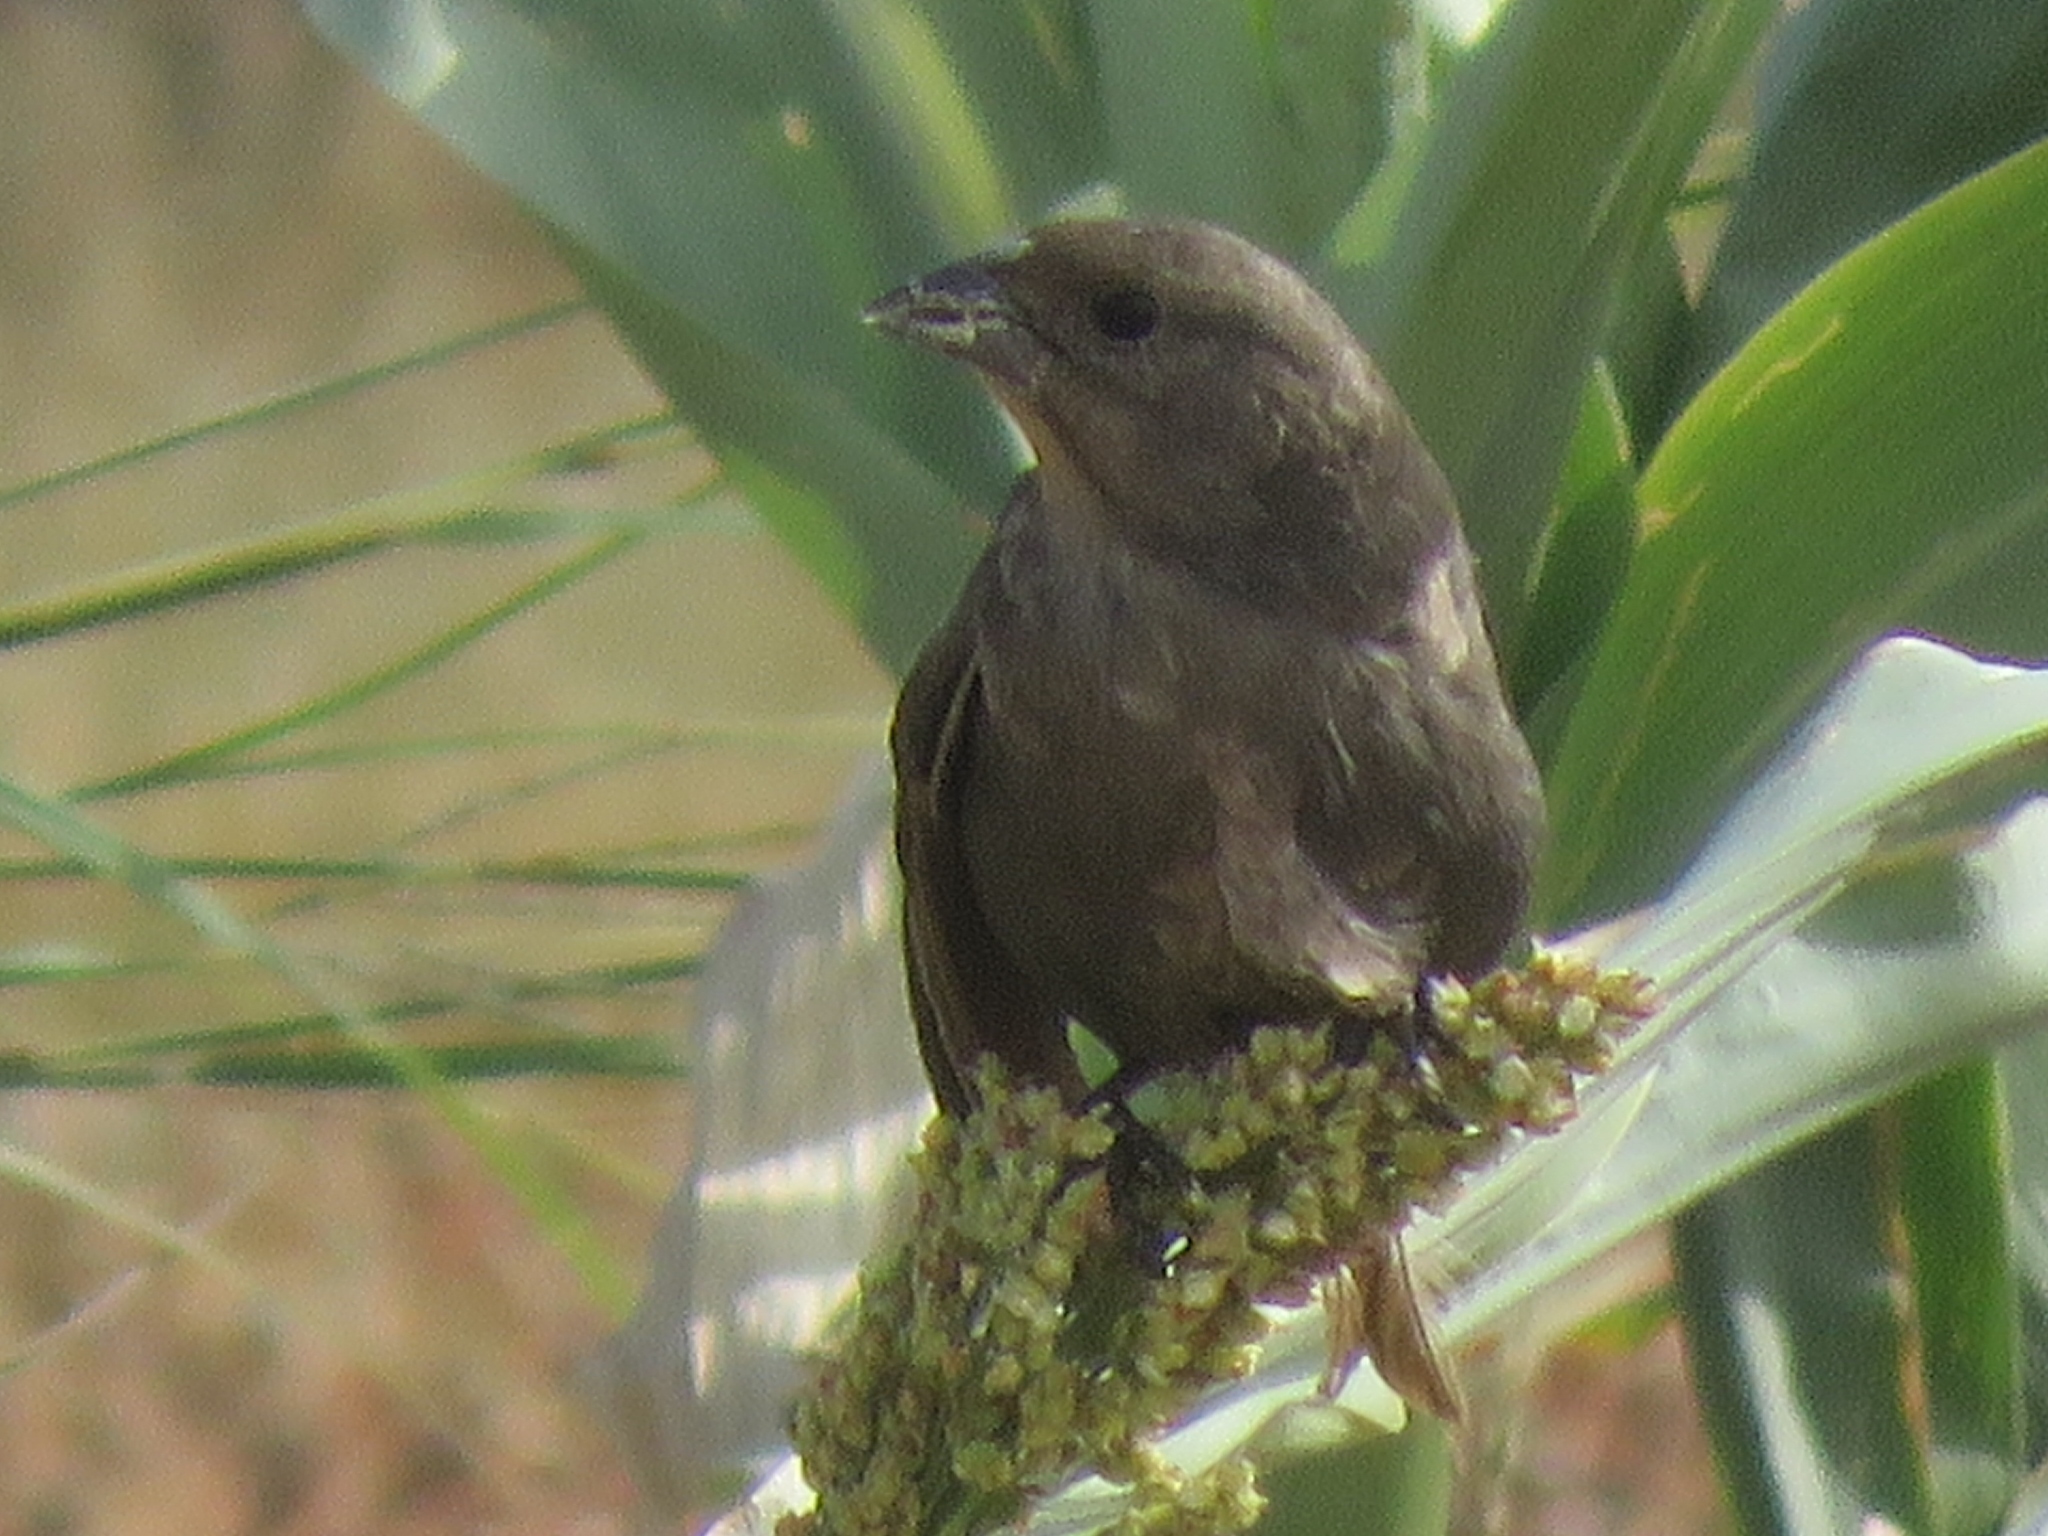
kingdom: Animalia
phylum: Chordata
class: Aves
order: Passeriformes
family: Icteridae
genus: Molothrus
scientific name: Molothrus ater
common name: Brown-headed cowbird
